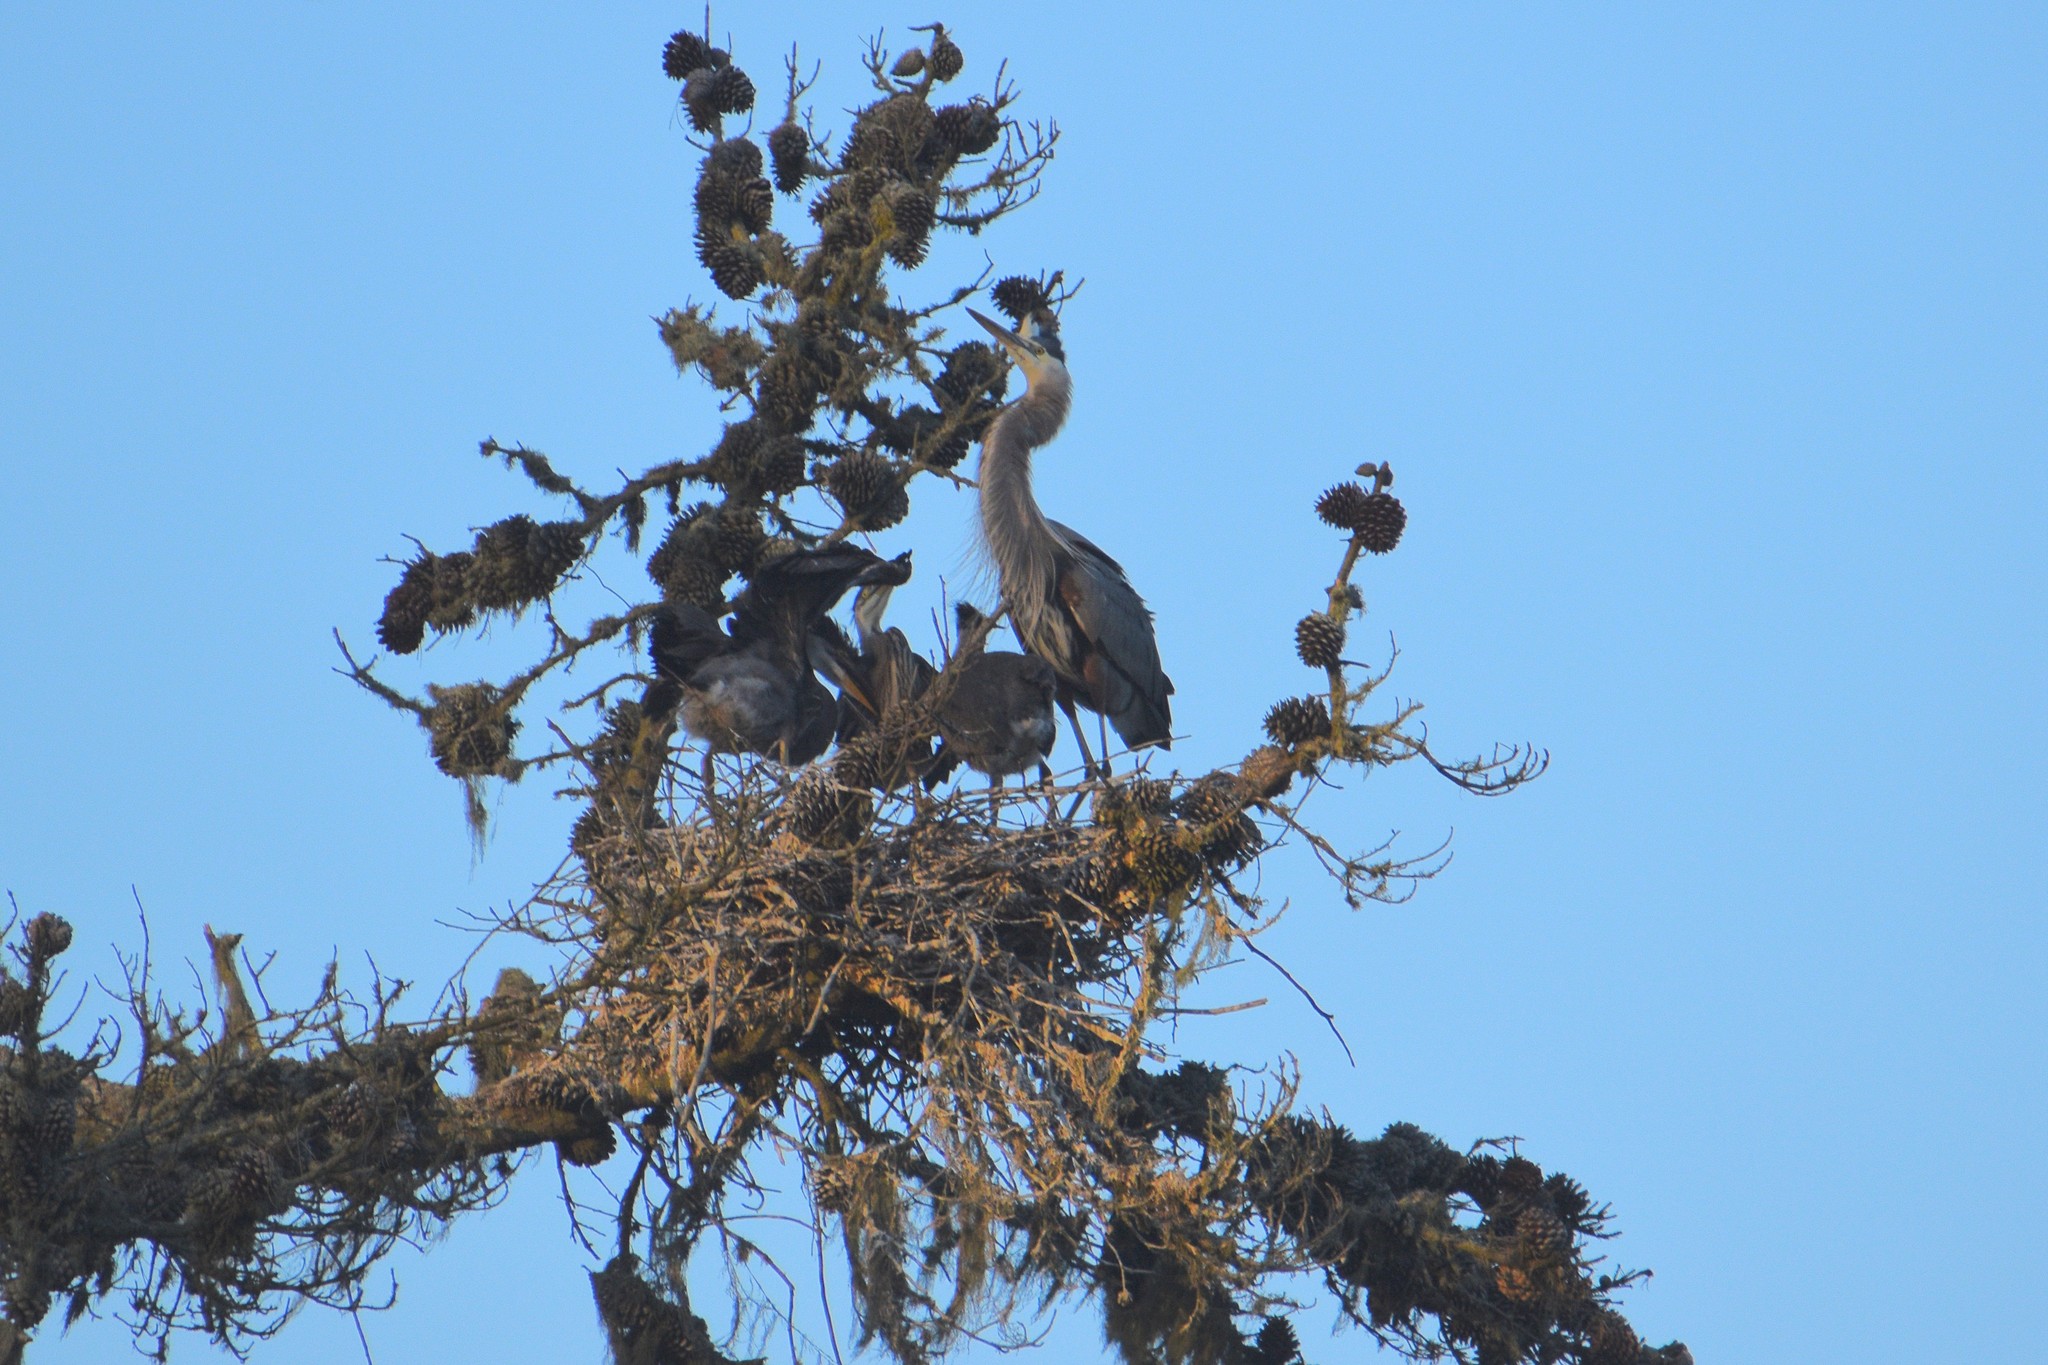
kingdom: Animalia
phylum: Chordata
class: Aves
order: Pelecaniformes
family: Ardeidae
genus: Ardea
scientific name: Ardea herodias
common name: Great blue heron
